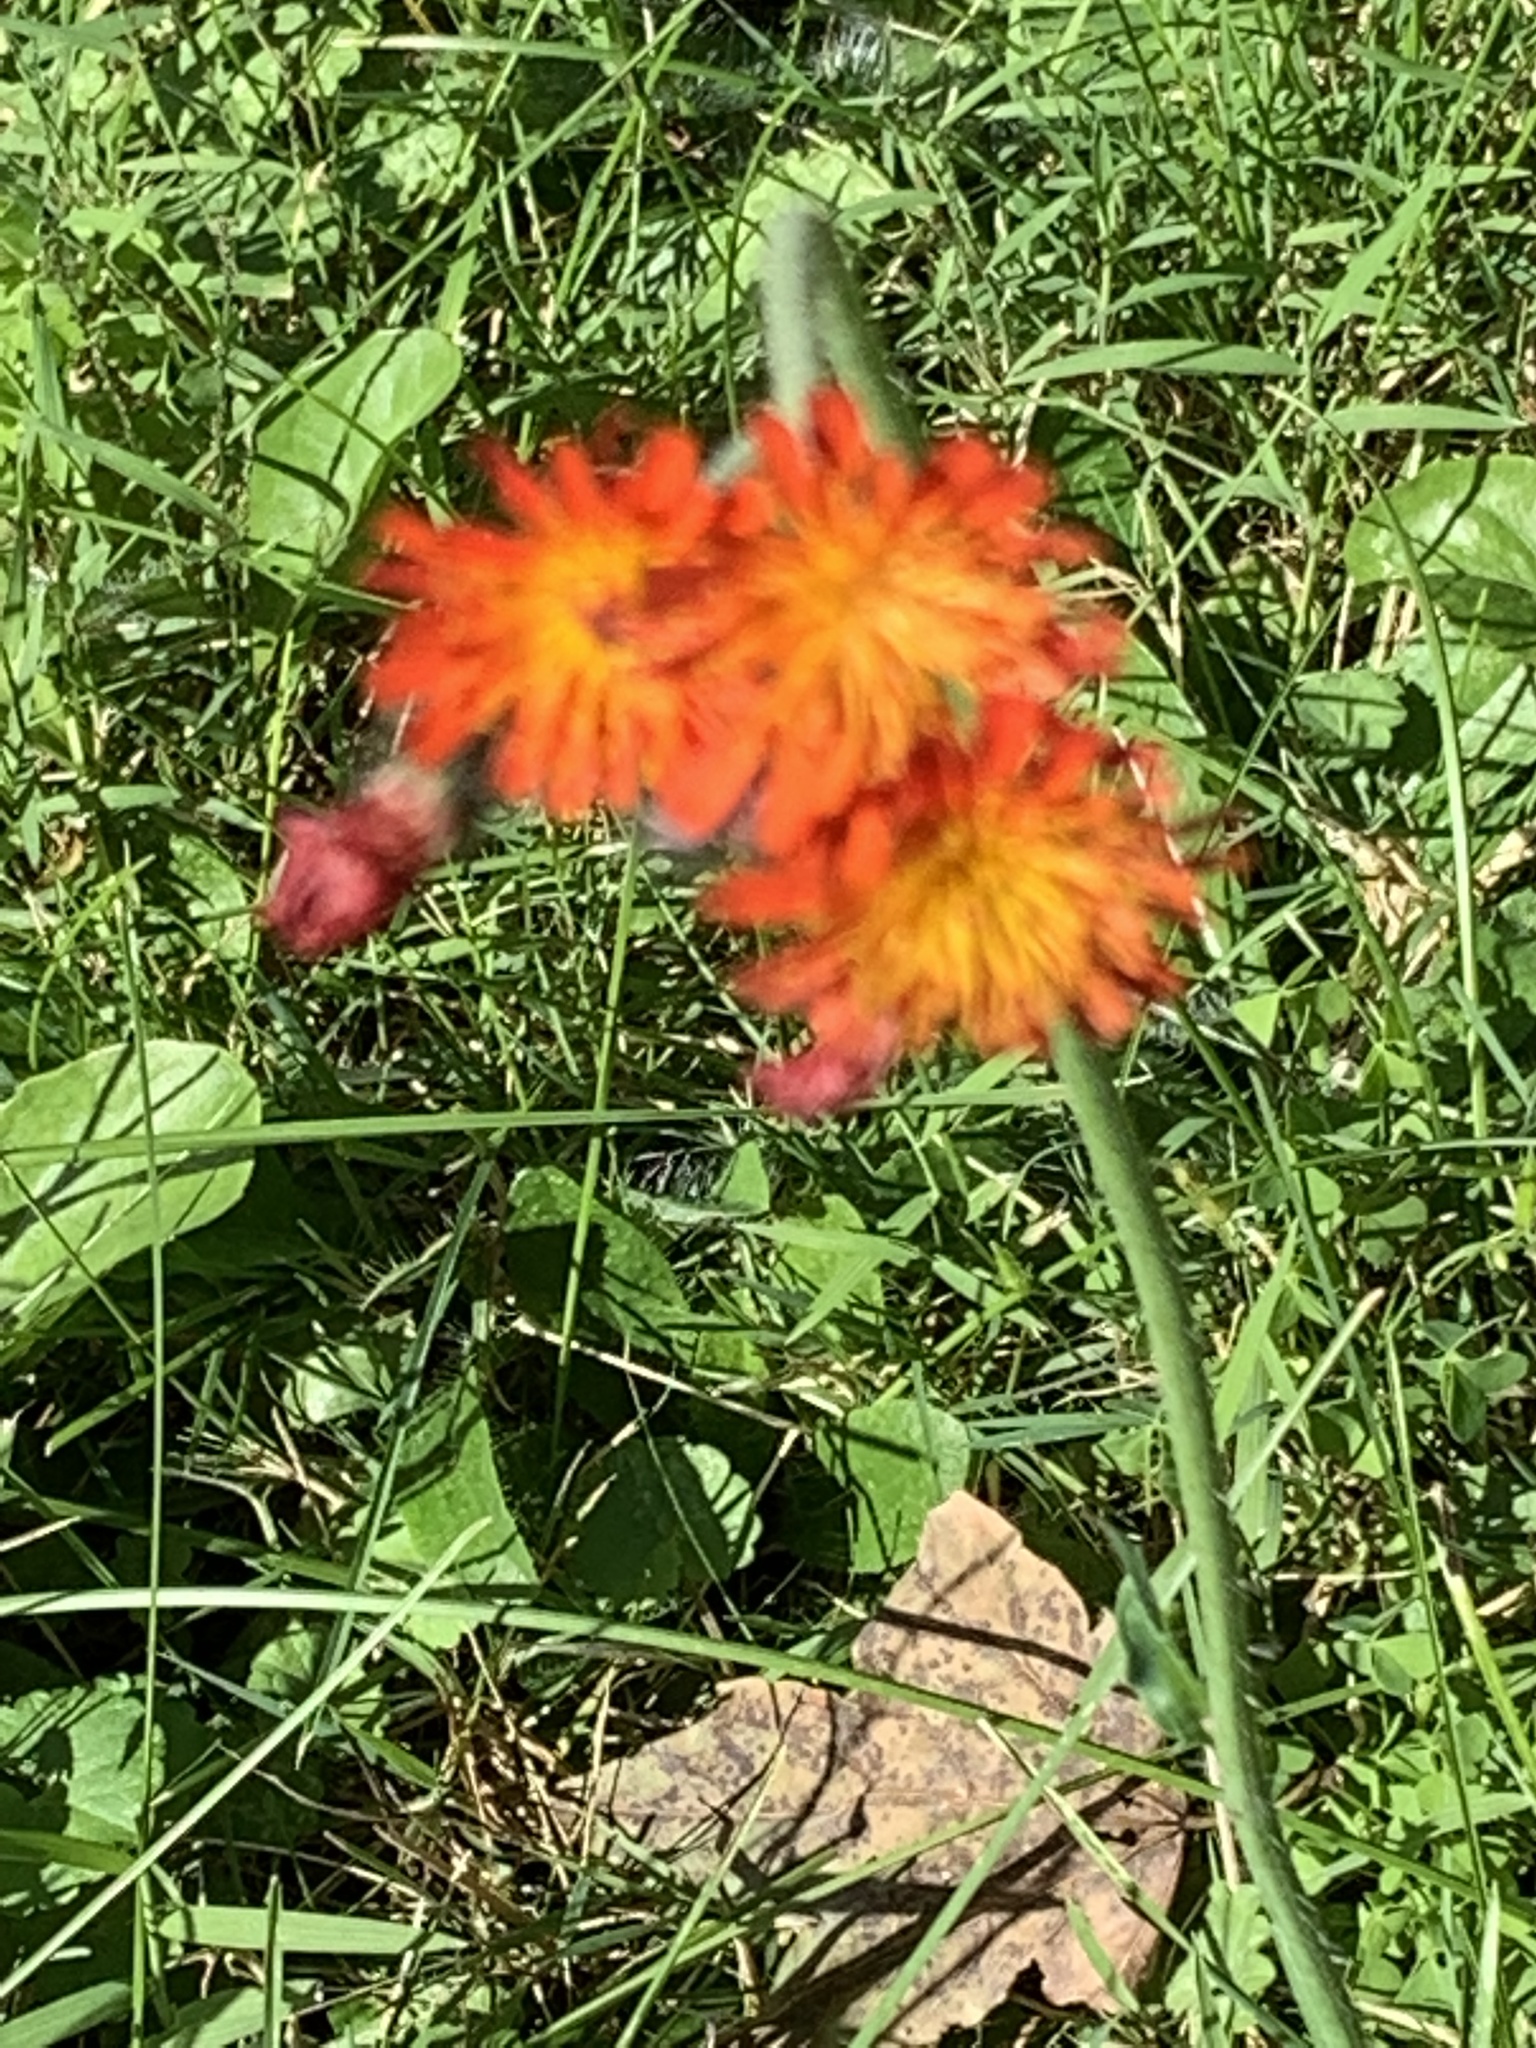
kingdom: Plantae
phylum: Tracheophyta
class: Magnoliopsida
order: Asterales
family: Asteraceae
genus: Pilosella
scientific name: Pilosella aurantiaca
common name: Fox-and-cubs
